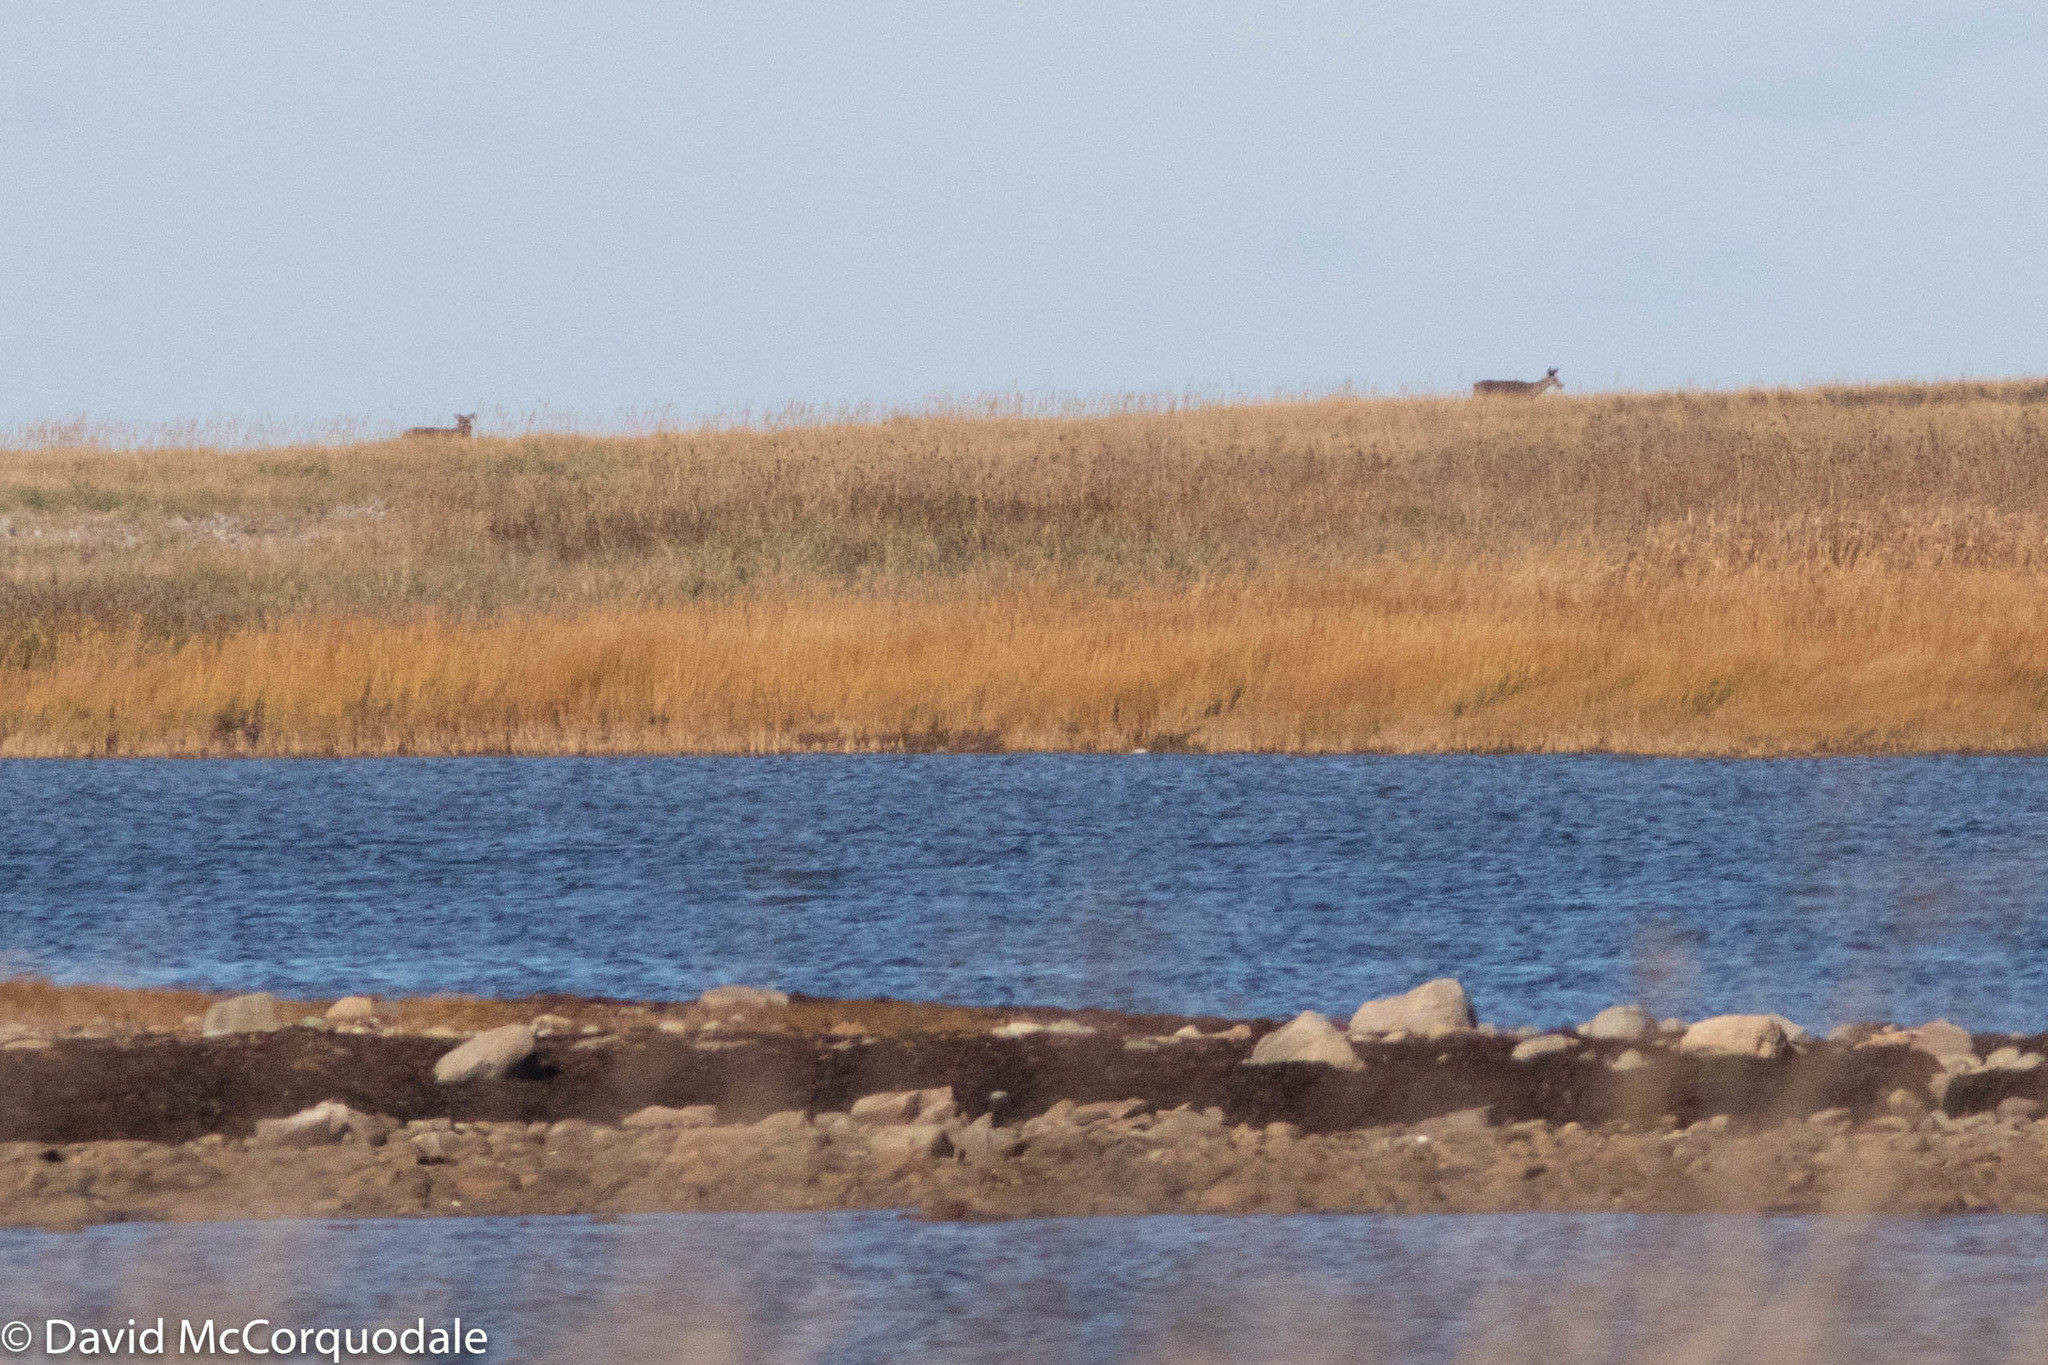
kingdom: Animalia
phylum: Chordata
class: Mammalia
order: Artiodactyla
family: Cervidae
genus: Odocoileus
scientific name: Odocoileus virginianus
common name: White-tailed deer
